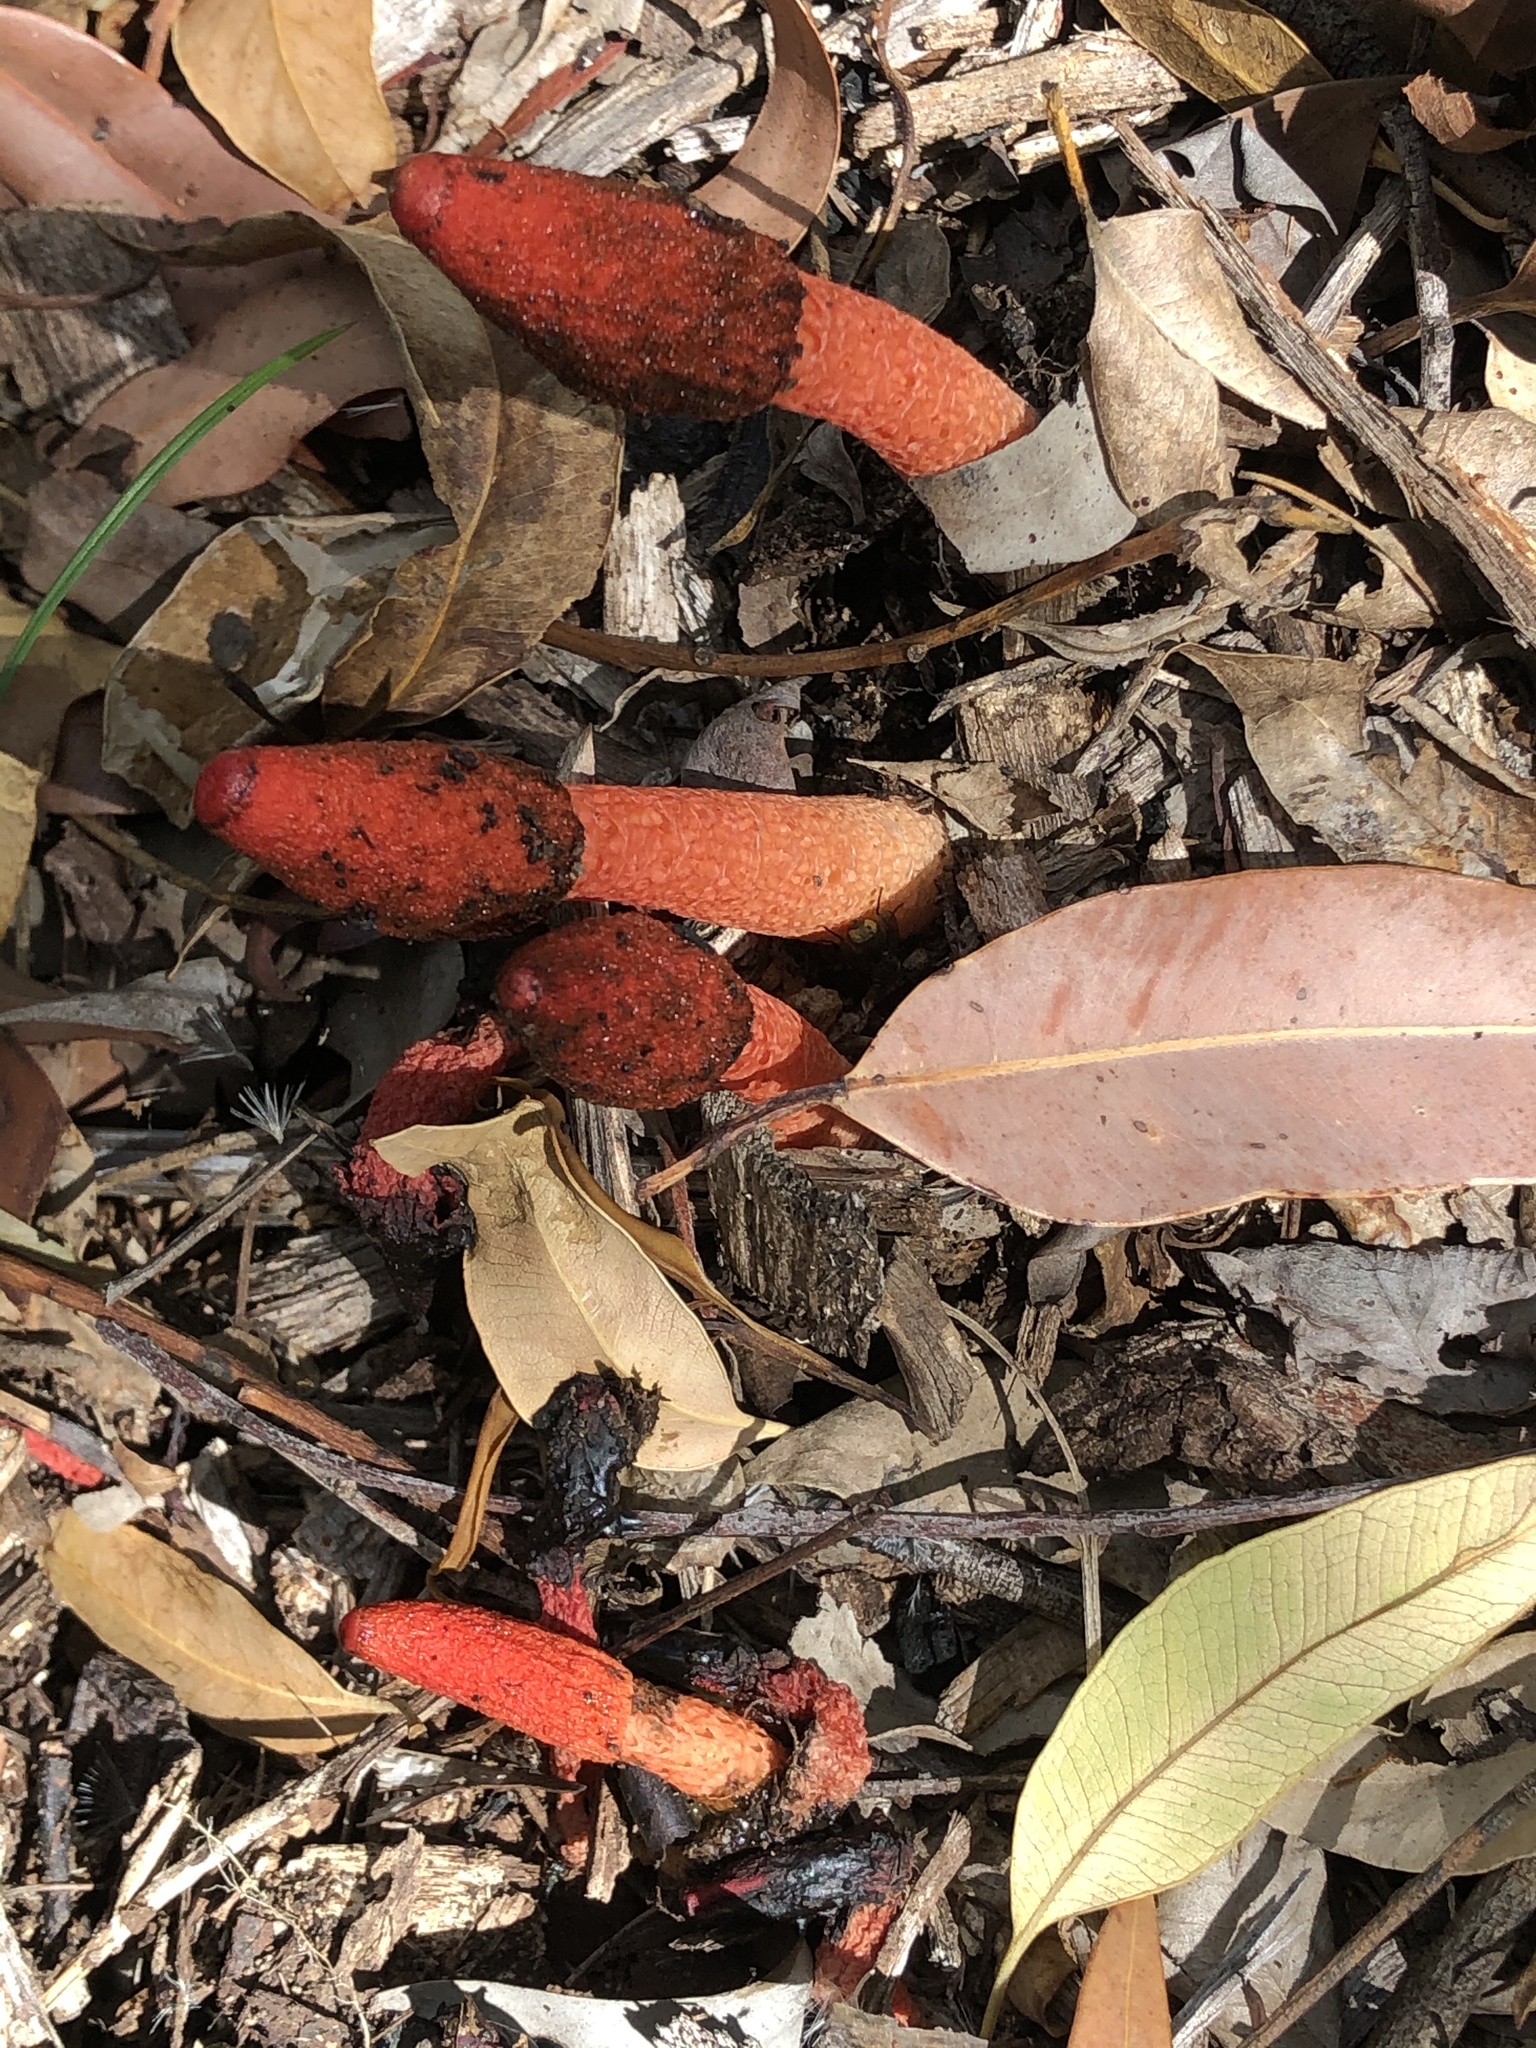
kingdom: Fungi
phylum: Basidiomycota
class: Agaricomycetes
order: Phallales
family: Phallaceae
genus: Phallus
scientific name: Phallus rubicundus
